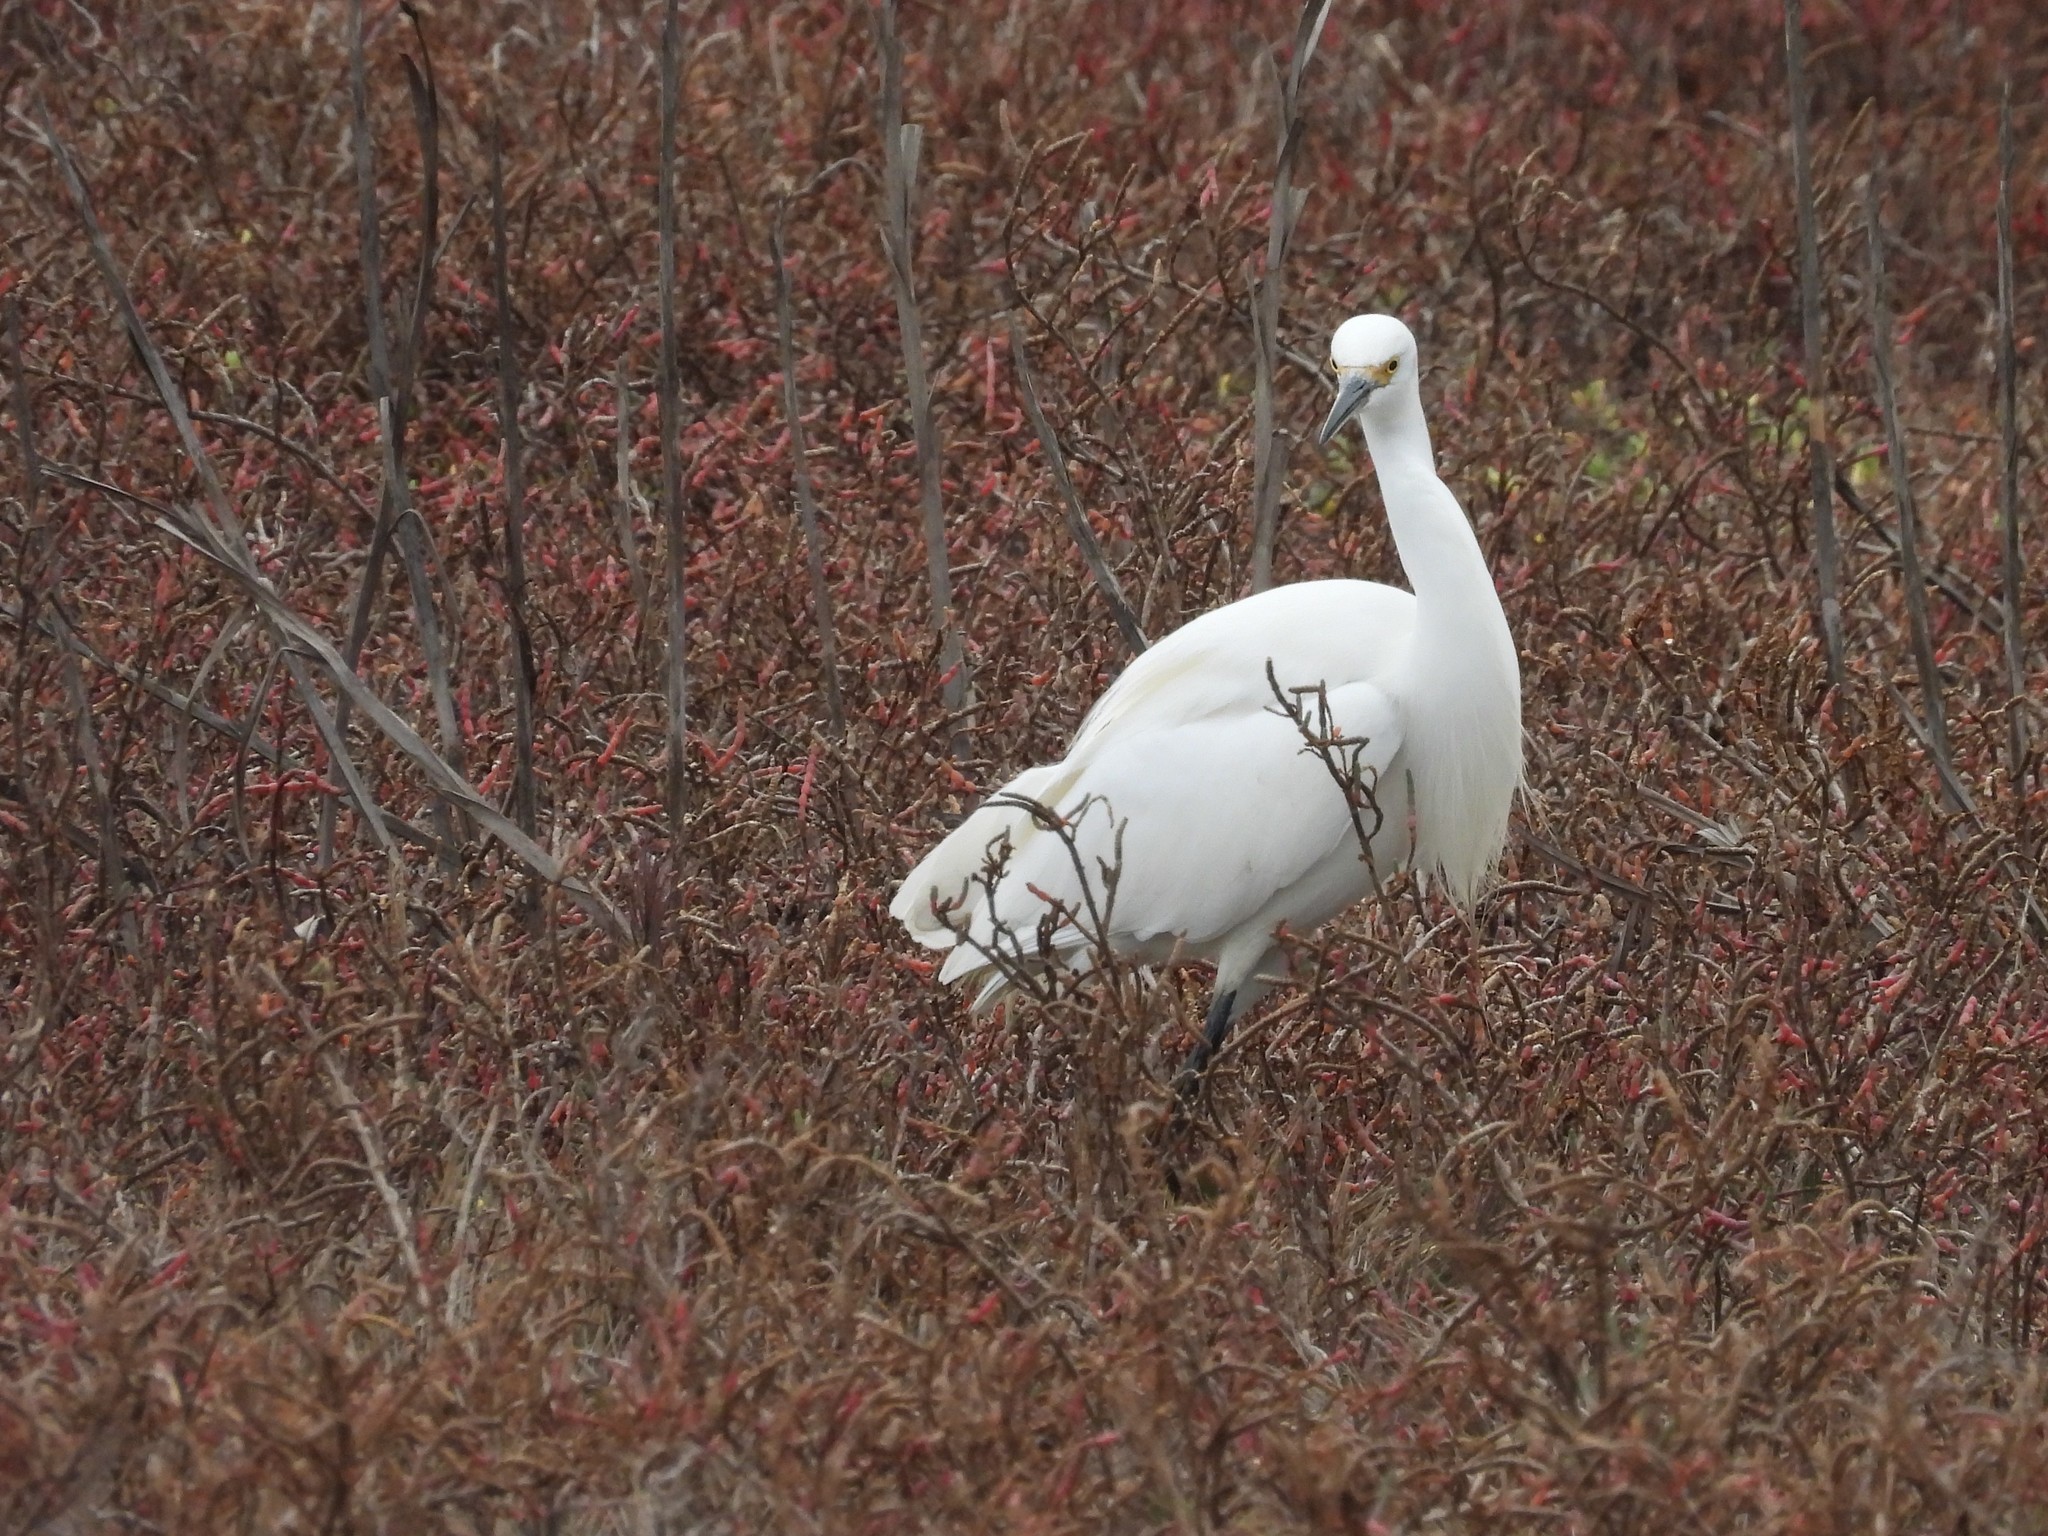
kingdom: Animalia
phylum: Chordata
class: Aves
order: Pelecaniformes
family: Ardeidae
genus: Egretta
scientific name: Egretta thula
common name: Snowy egret
